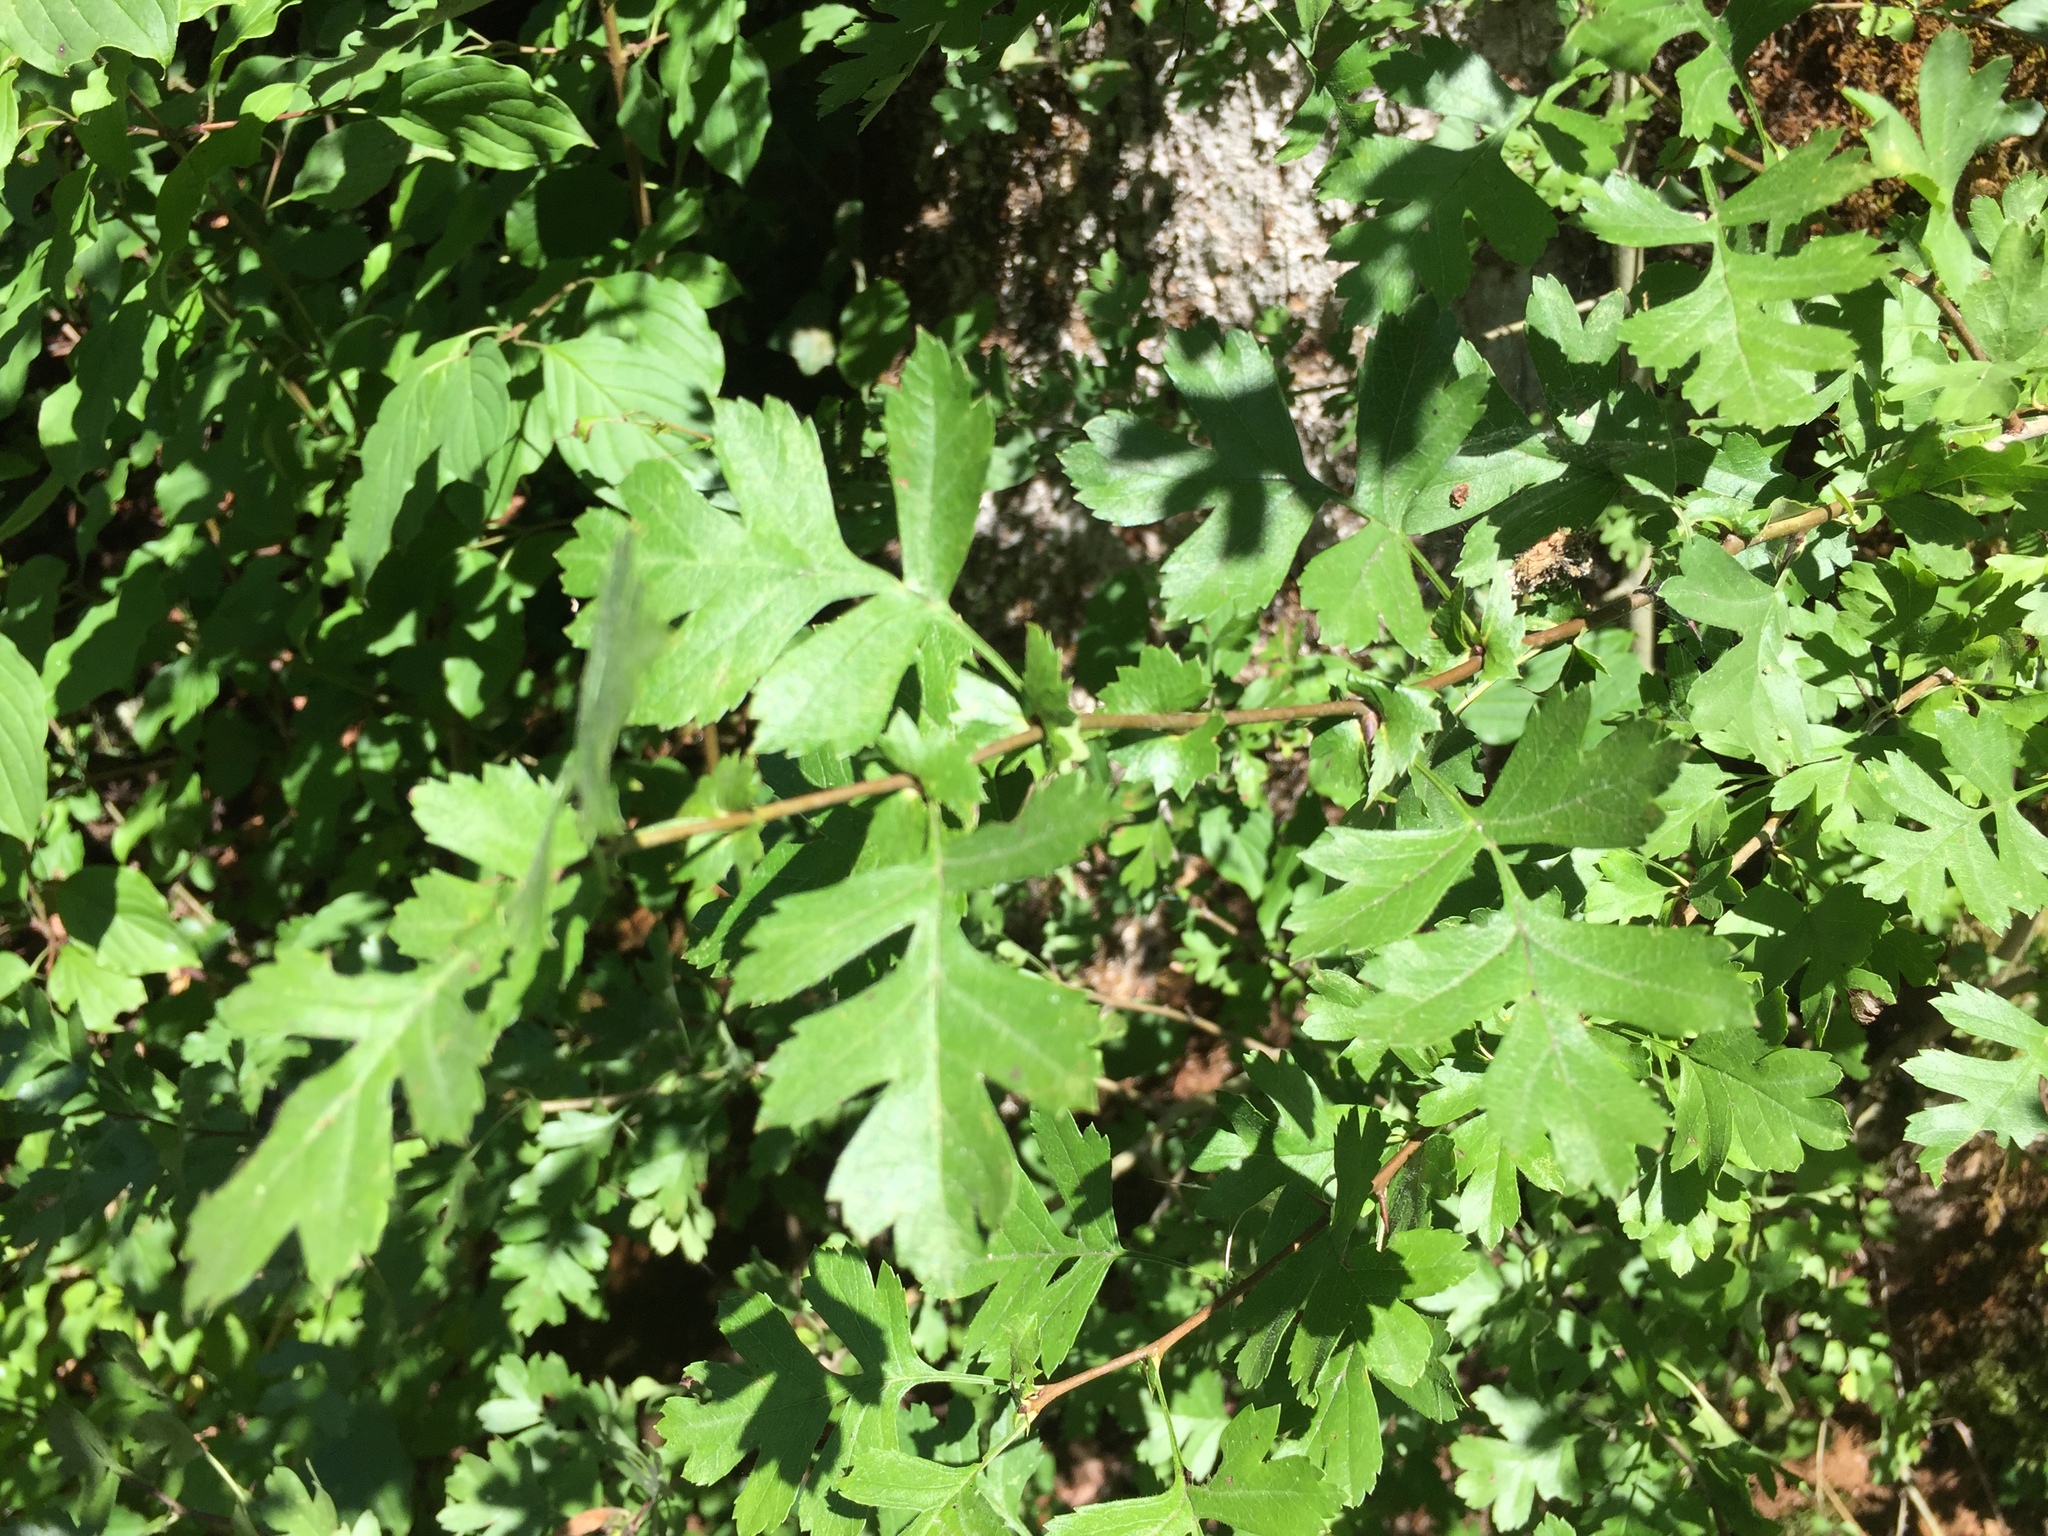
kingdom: Plantae
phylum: Tracheophyta
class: Magnoliopsida
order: Rosales
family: Rosaceae
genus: Crataegus
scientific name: Crataegus monogyna
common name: Hawthorn
